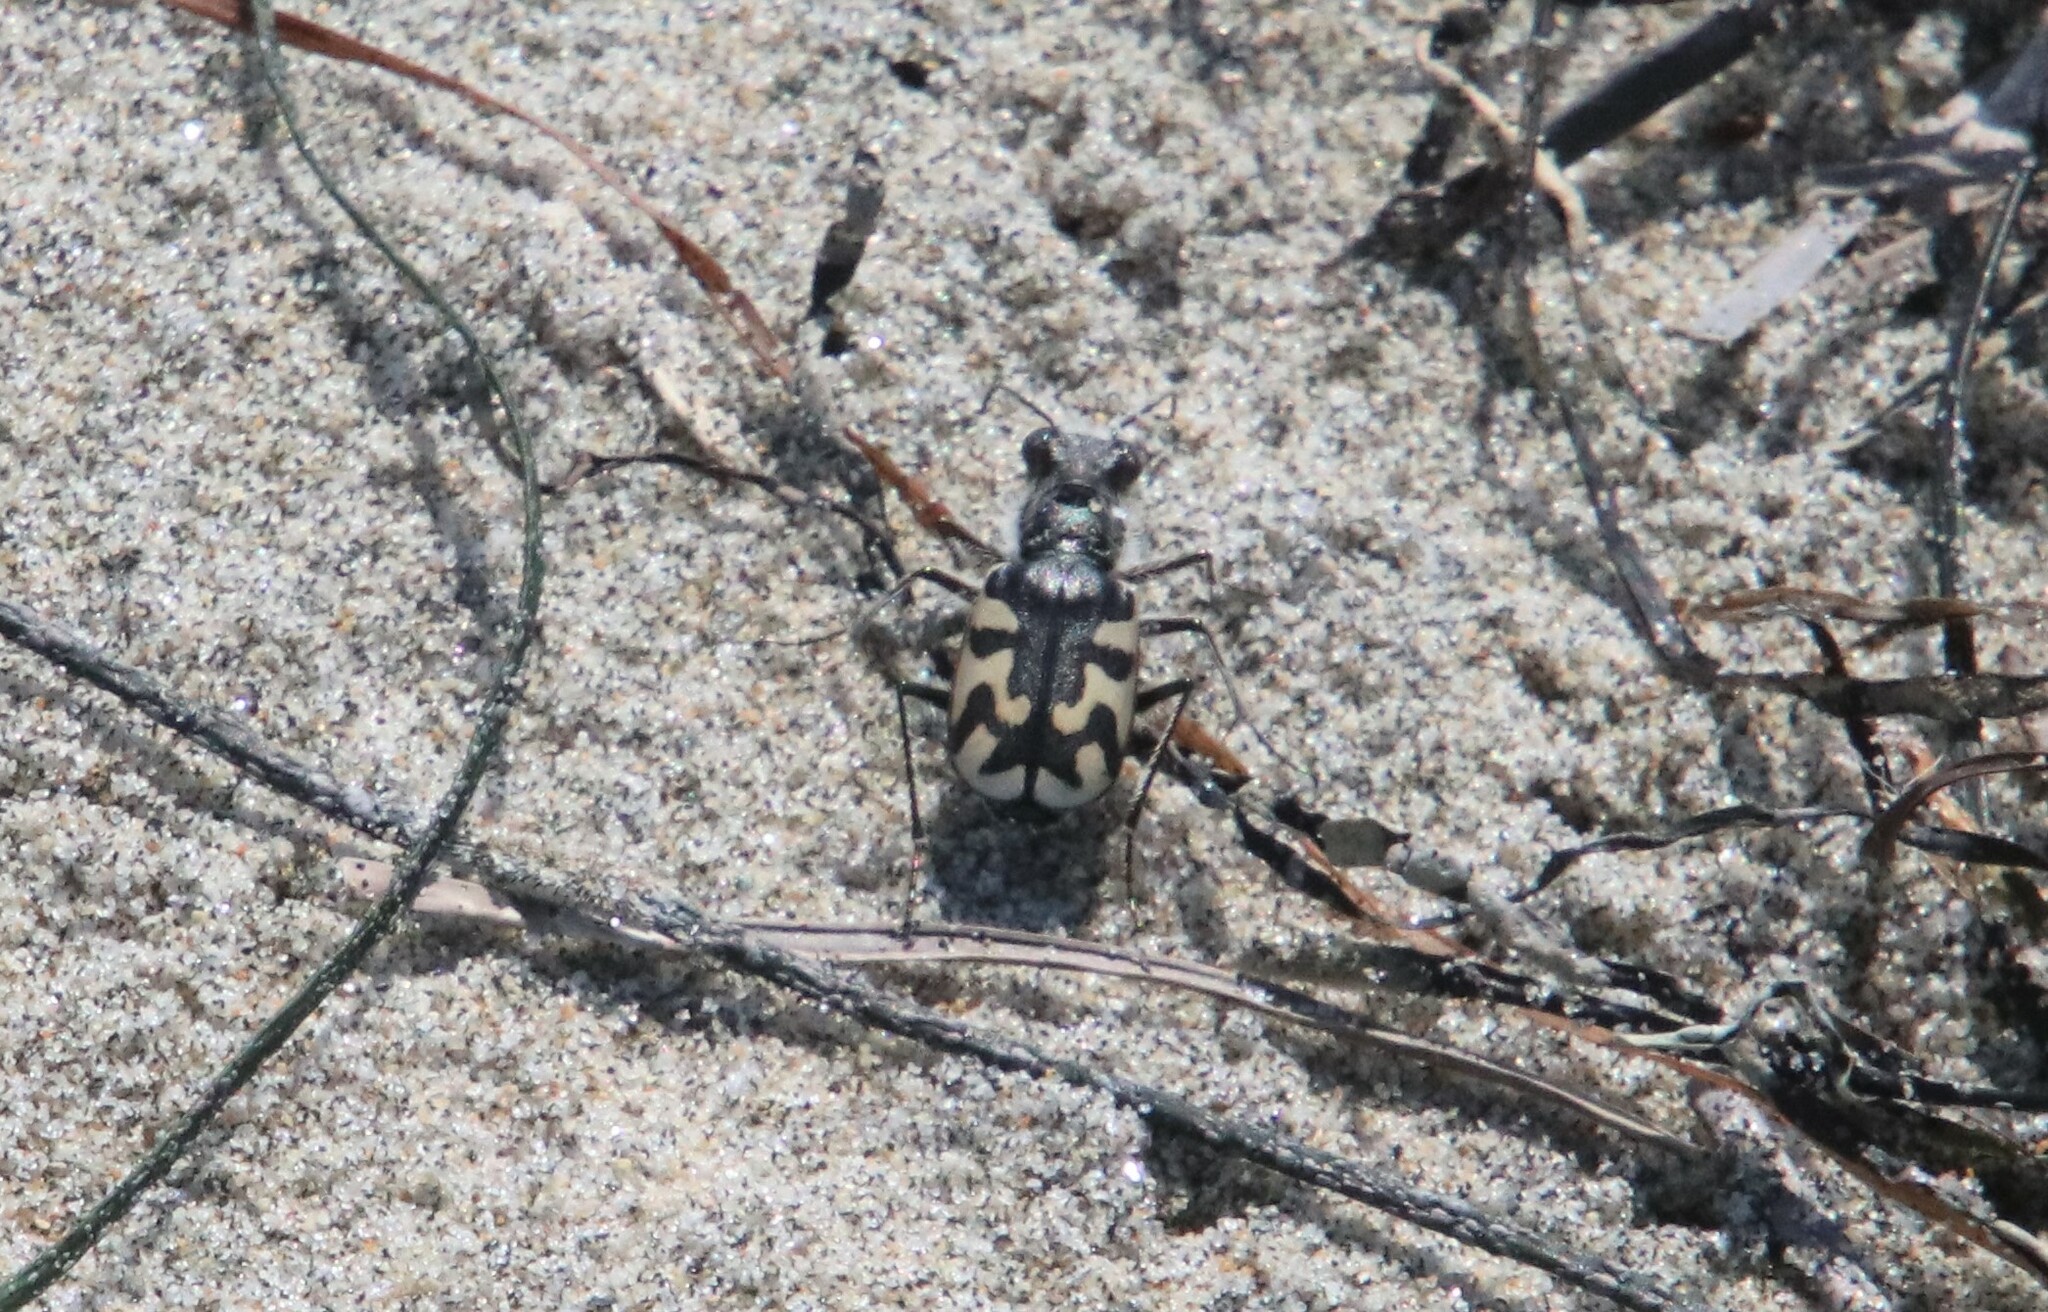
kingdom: Animalia
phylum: Arthropoda
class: Insecta
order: Coleoptera
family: Carabidae
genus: Cicindela
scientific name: Cicindela latesignata
